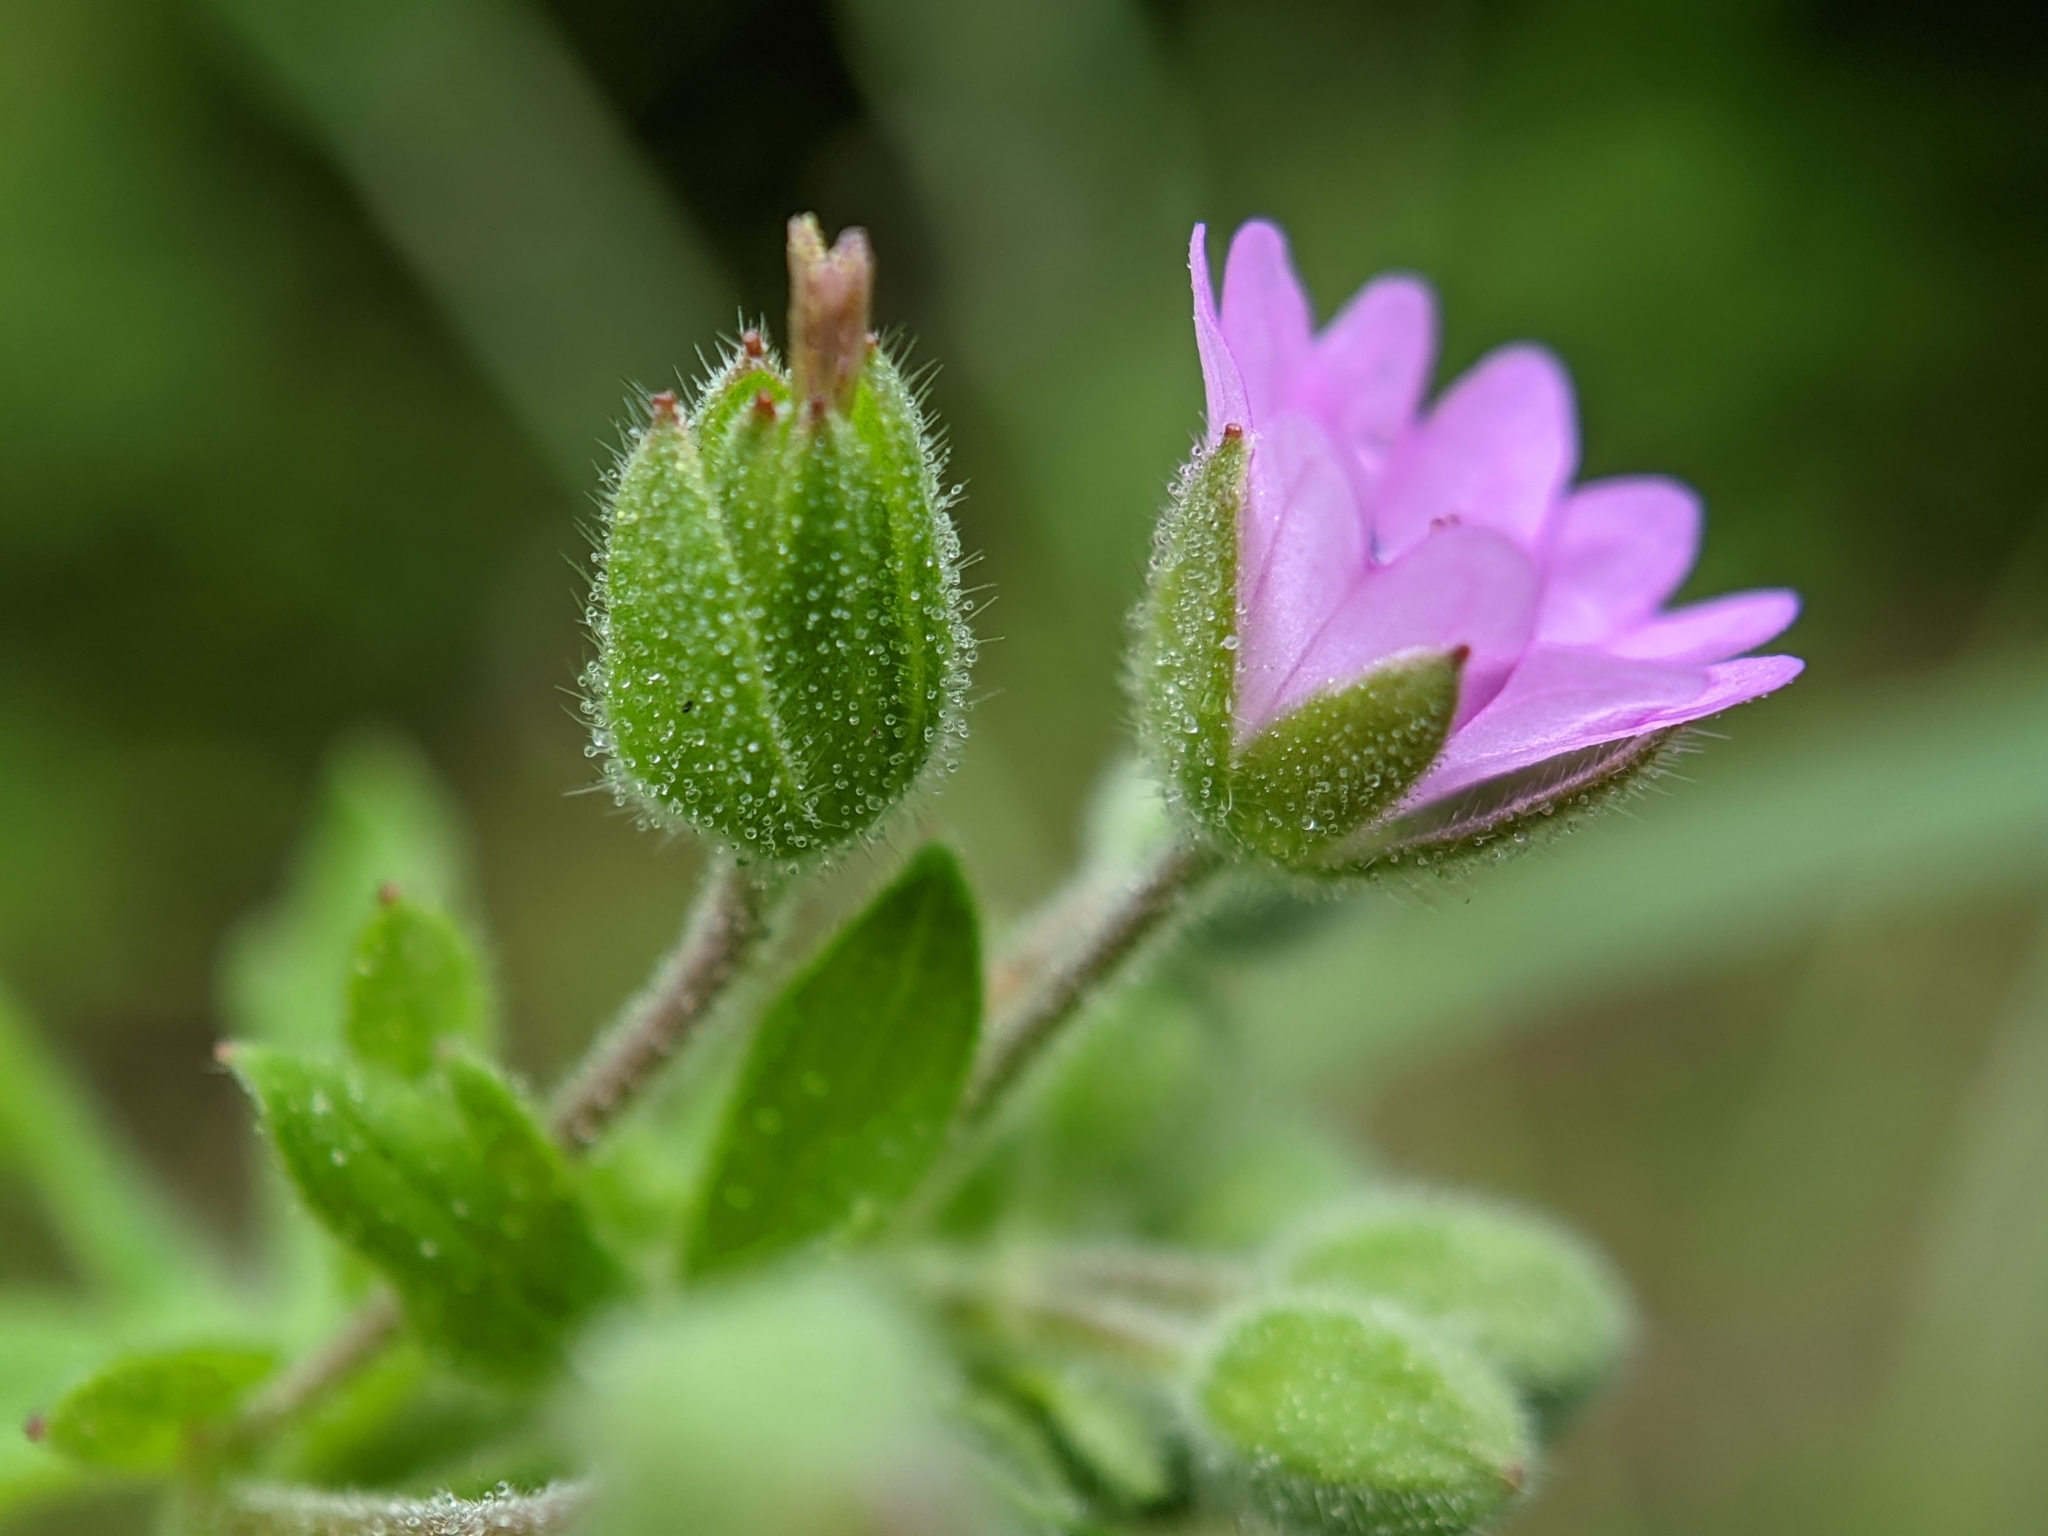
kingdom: Plantae
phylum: Tracheophyta
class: Magnoliopsida
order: Geraniales
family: Geraniaceae
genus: Geranium
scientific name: Geranium molle
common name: Dove's-foot crane's-bill
